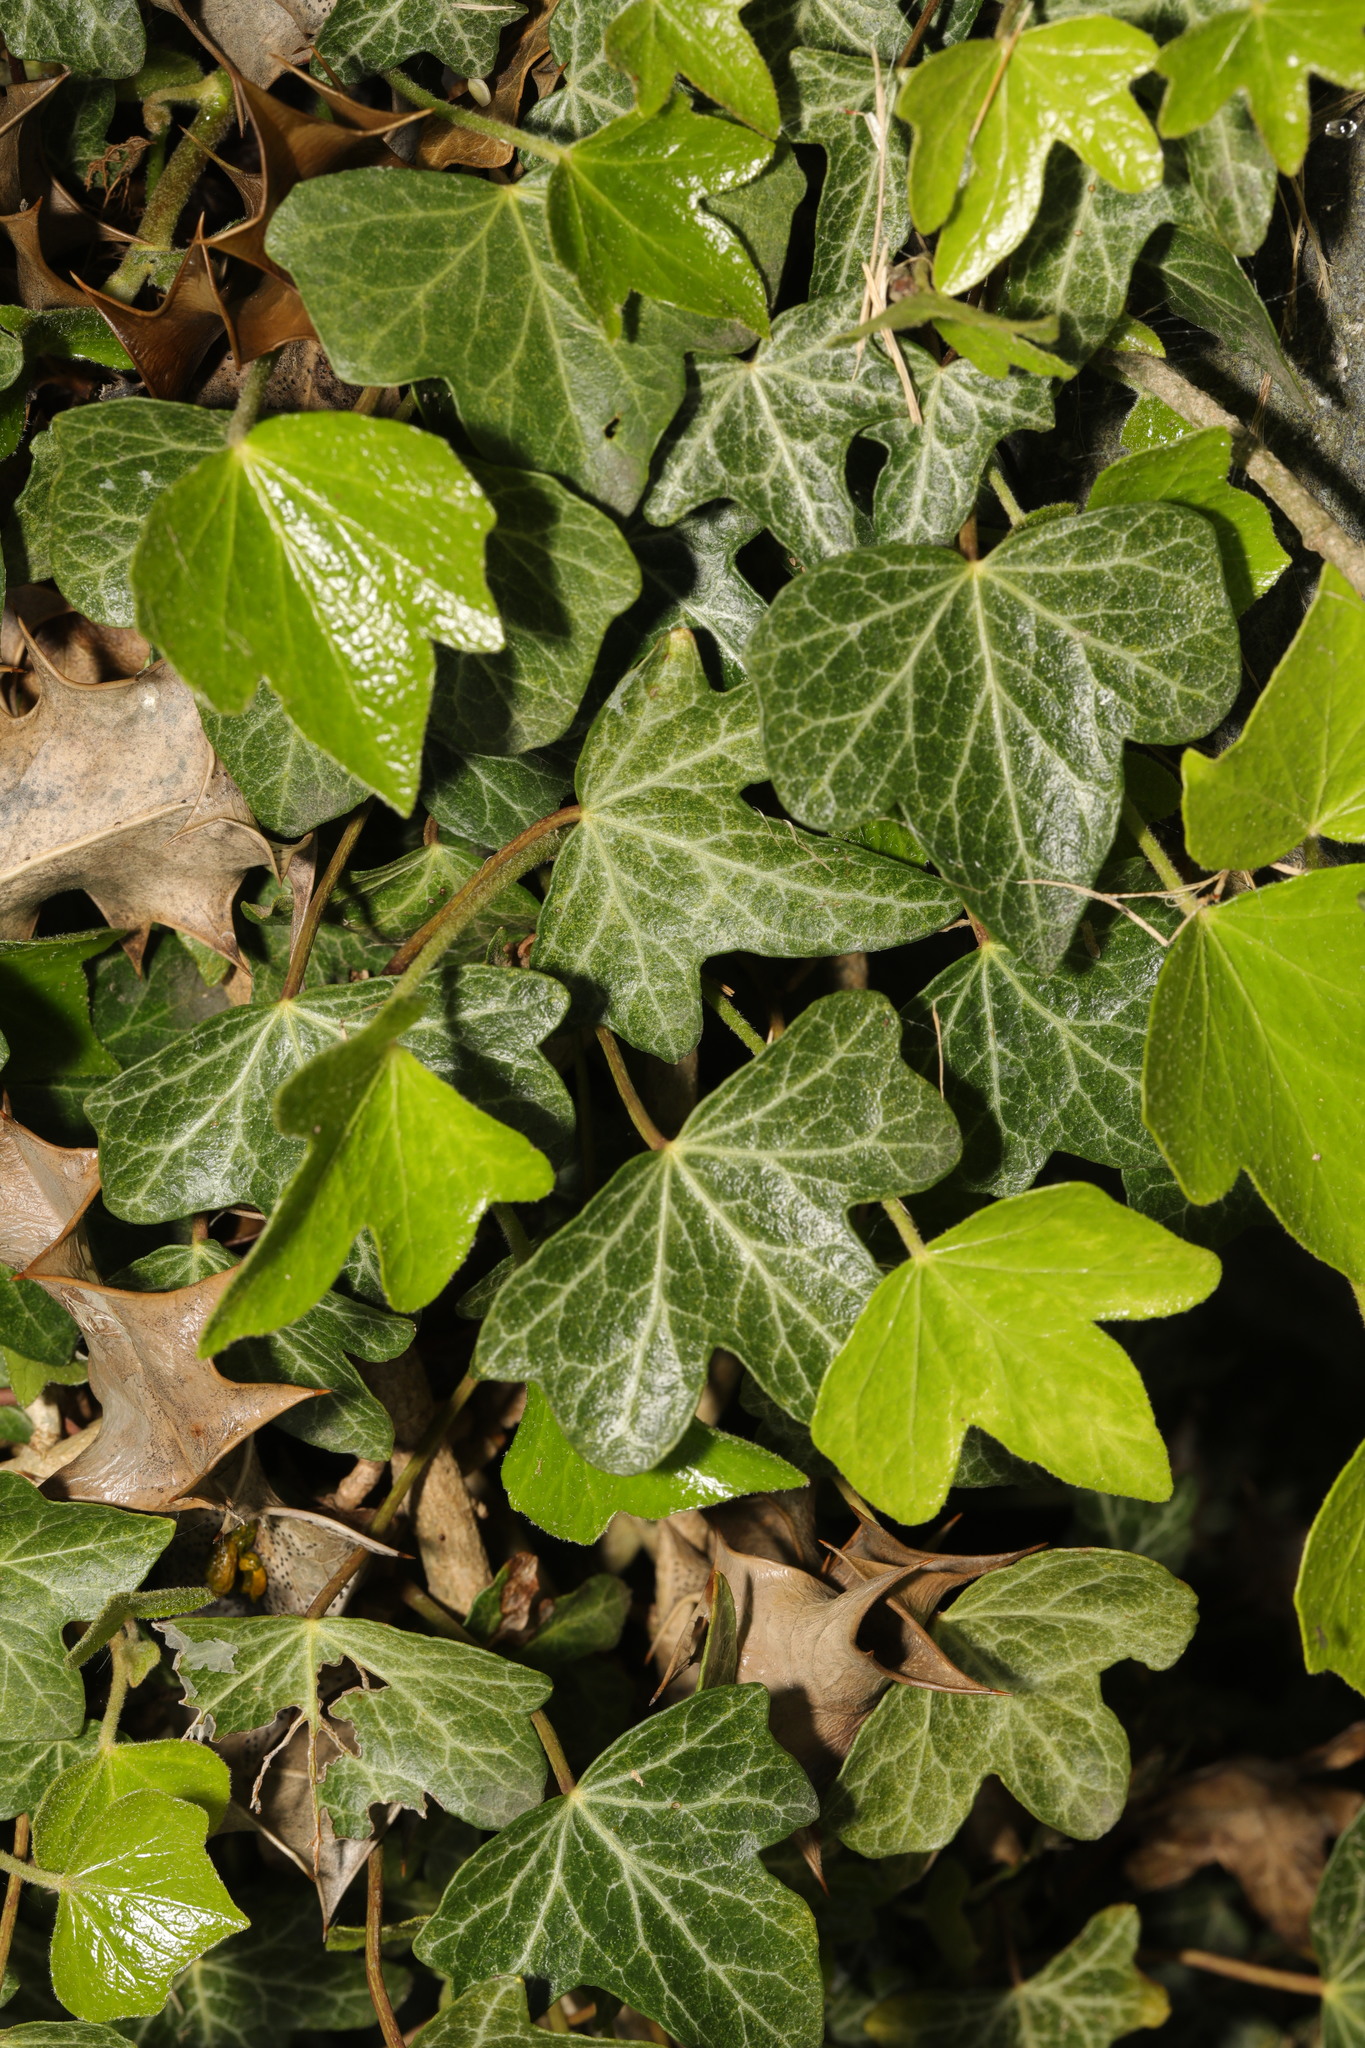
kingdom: Plantae
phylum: Tracheophyta
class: Magnoliopsida
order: Apiales
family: Araliaceae
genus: Hedera
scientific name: Hedera helix
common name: Ivy
